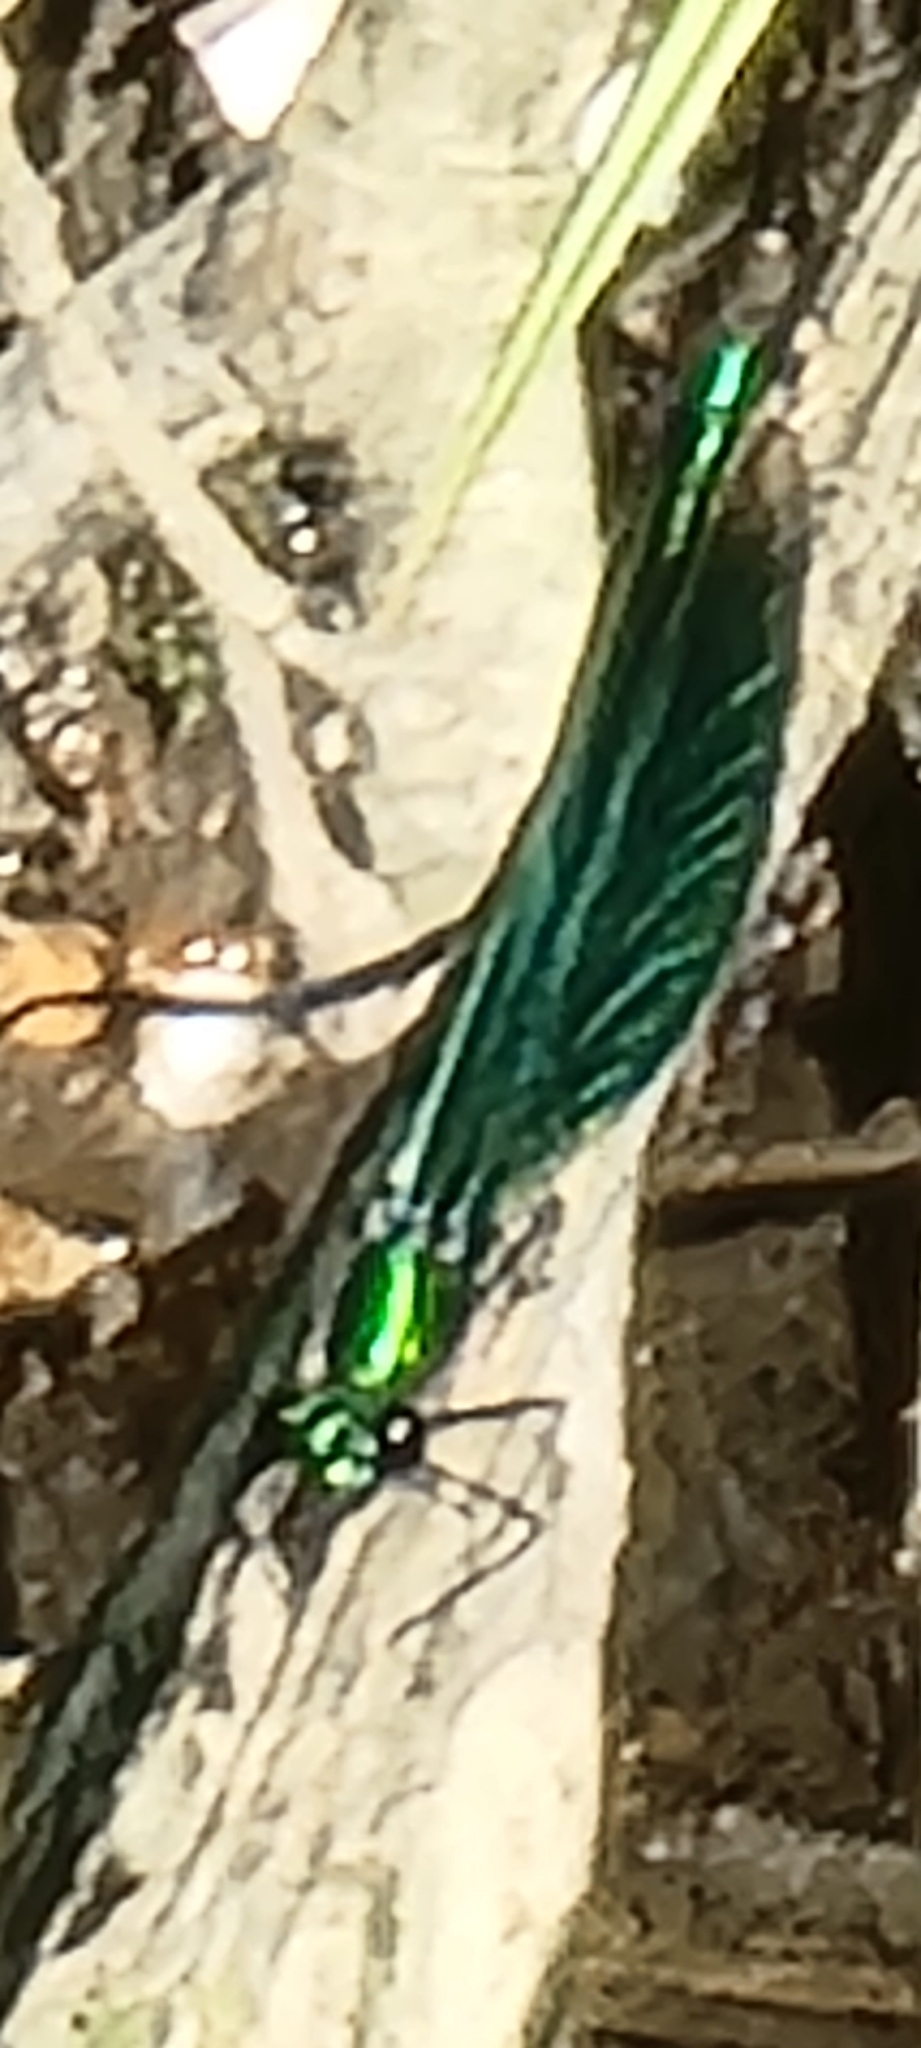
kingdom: Animalia
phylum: Arthropoda
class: Insecta
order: Odonata
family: Calopterygidae
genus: Calopteryx
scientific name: Calopteryx virgo
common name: Beautiful demoiselle
